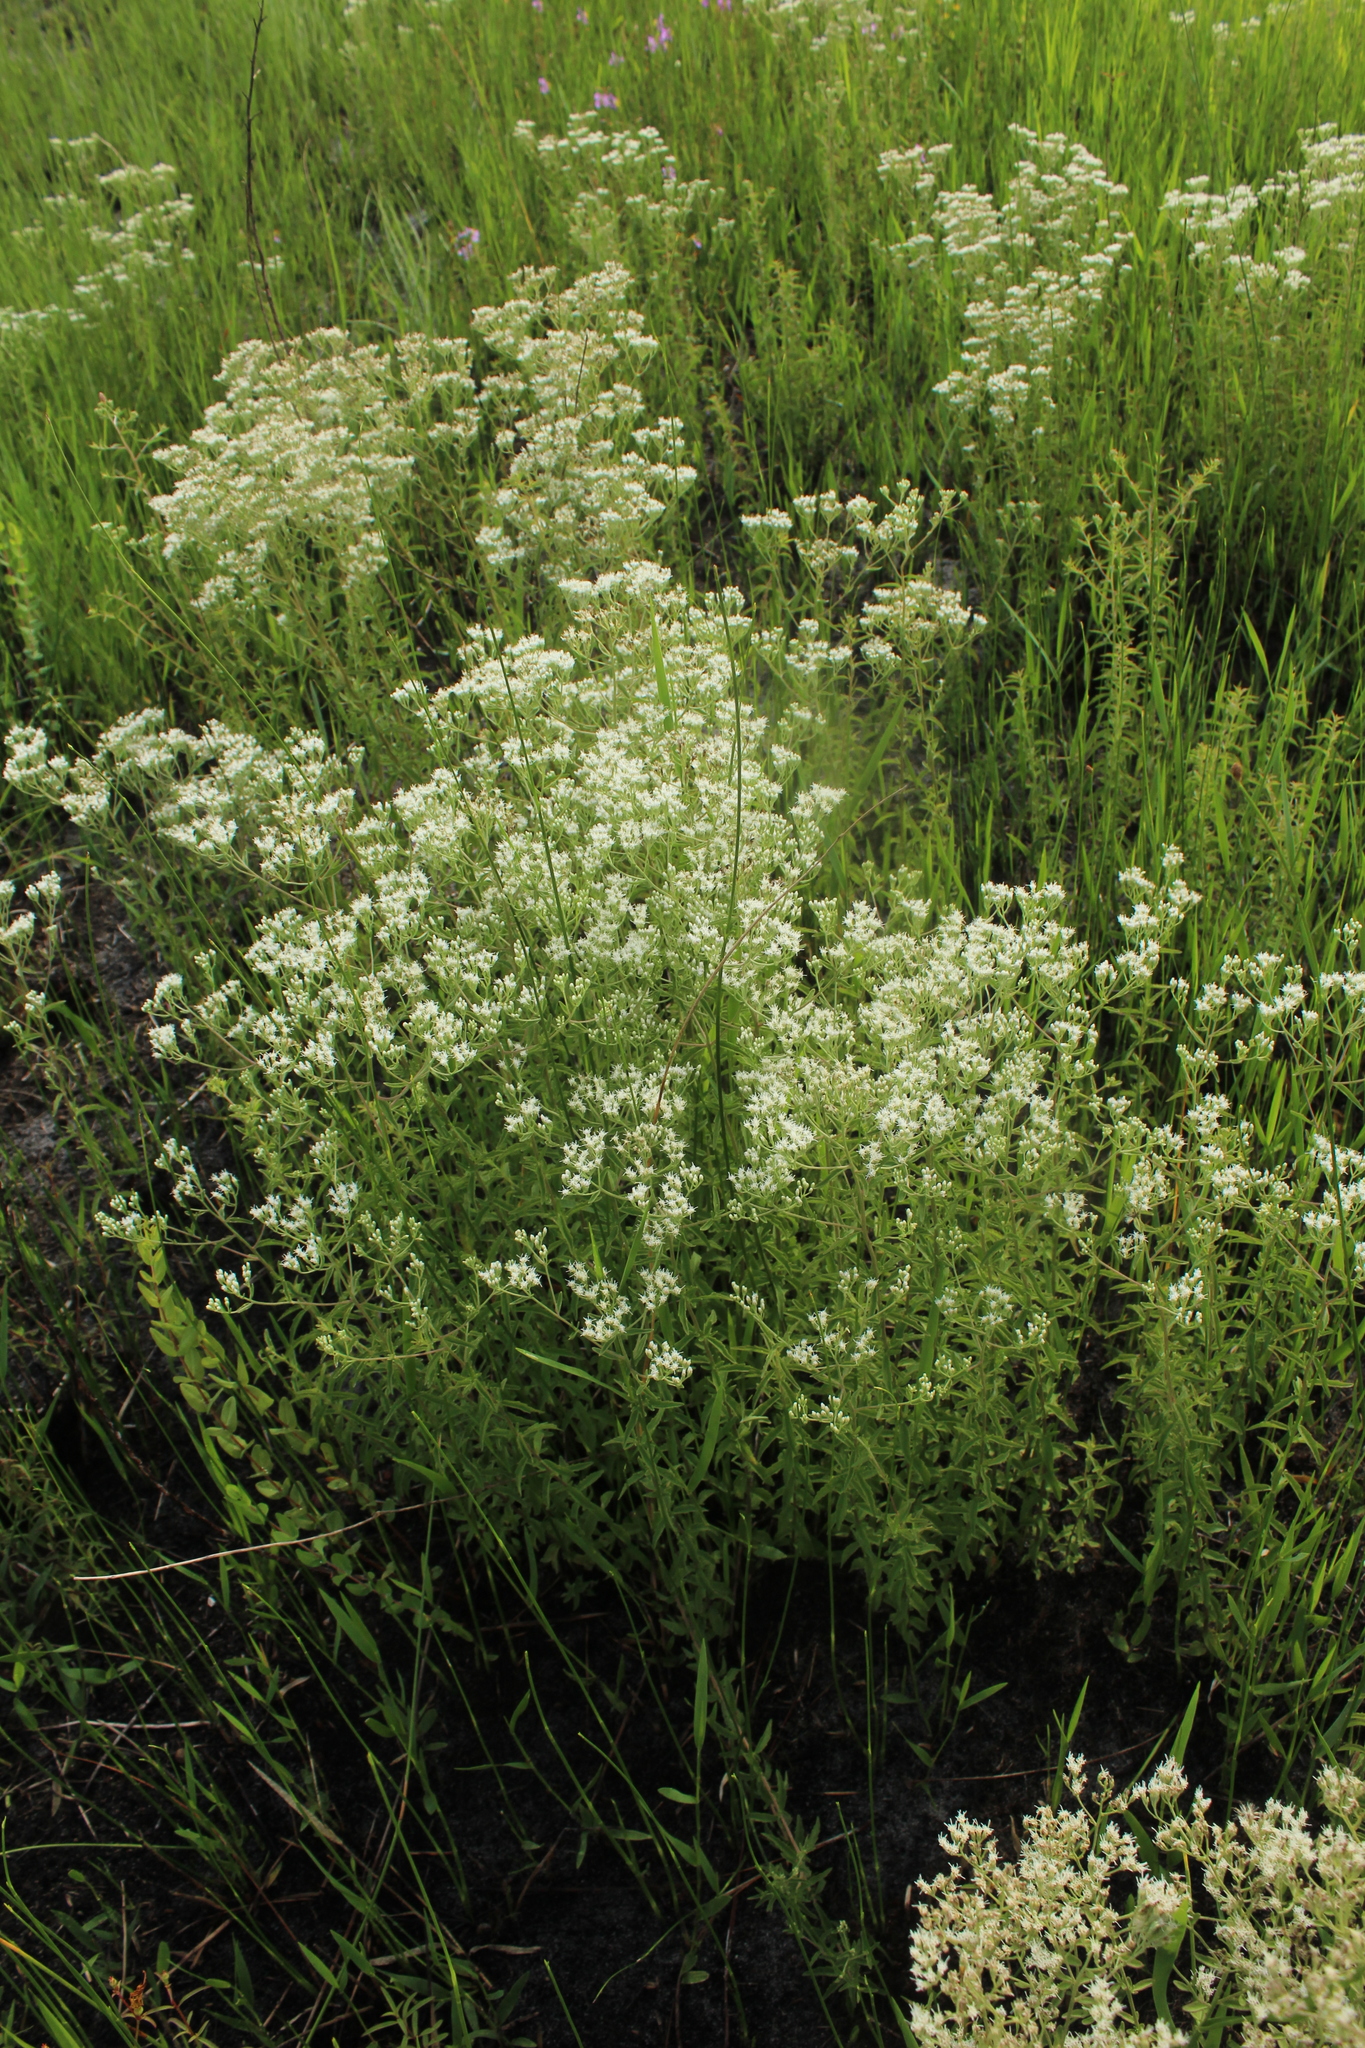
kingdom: Plantae
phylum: Tracheophyta
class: Magnoliopsida
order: Asterales
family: Asteraceae
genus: Eupatorium
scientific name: Eupatorium mohrii
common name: Mohr's thoroughwort
